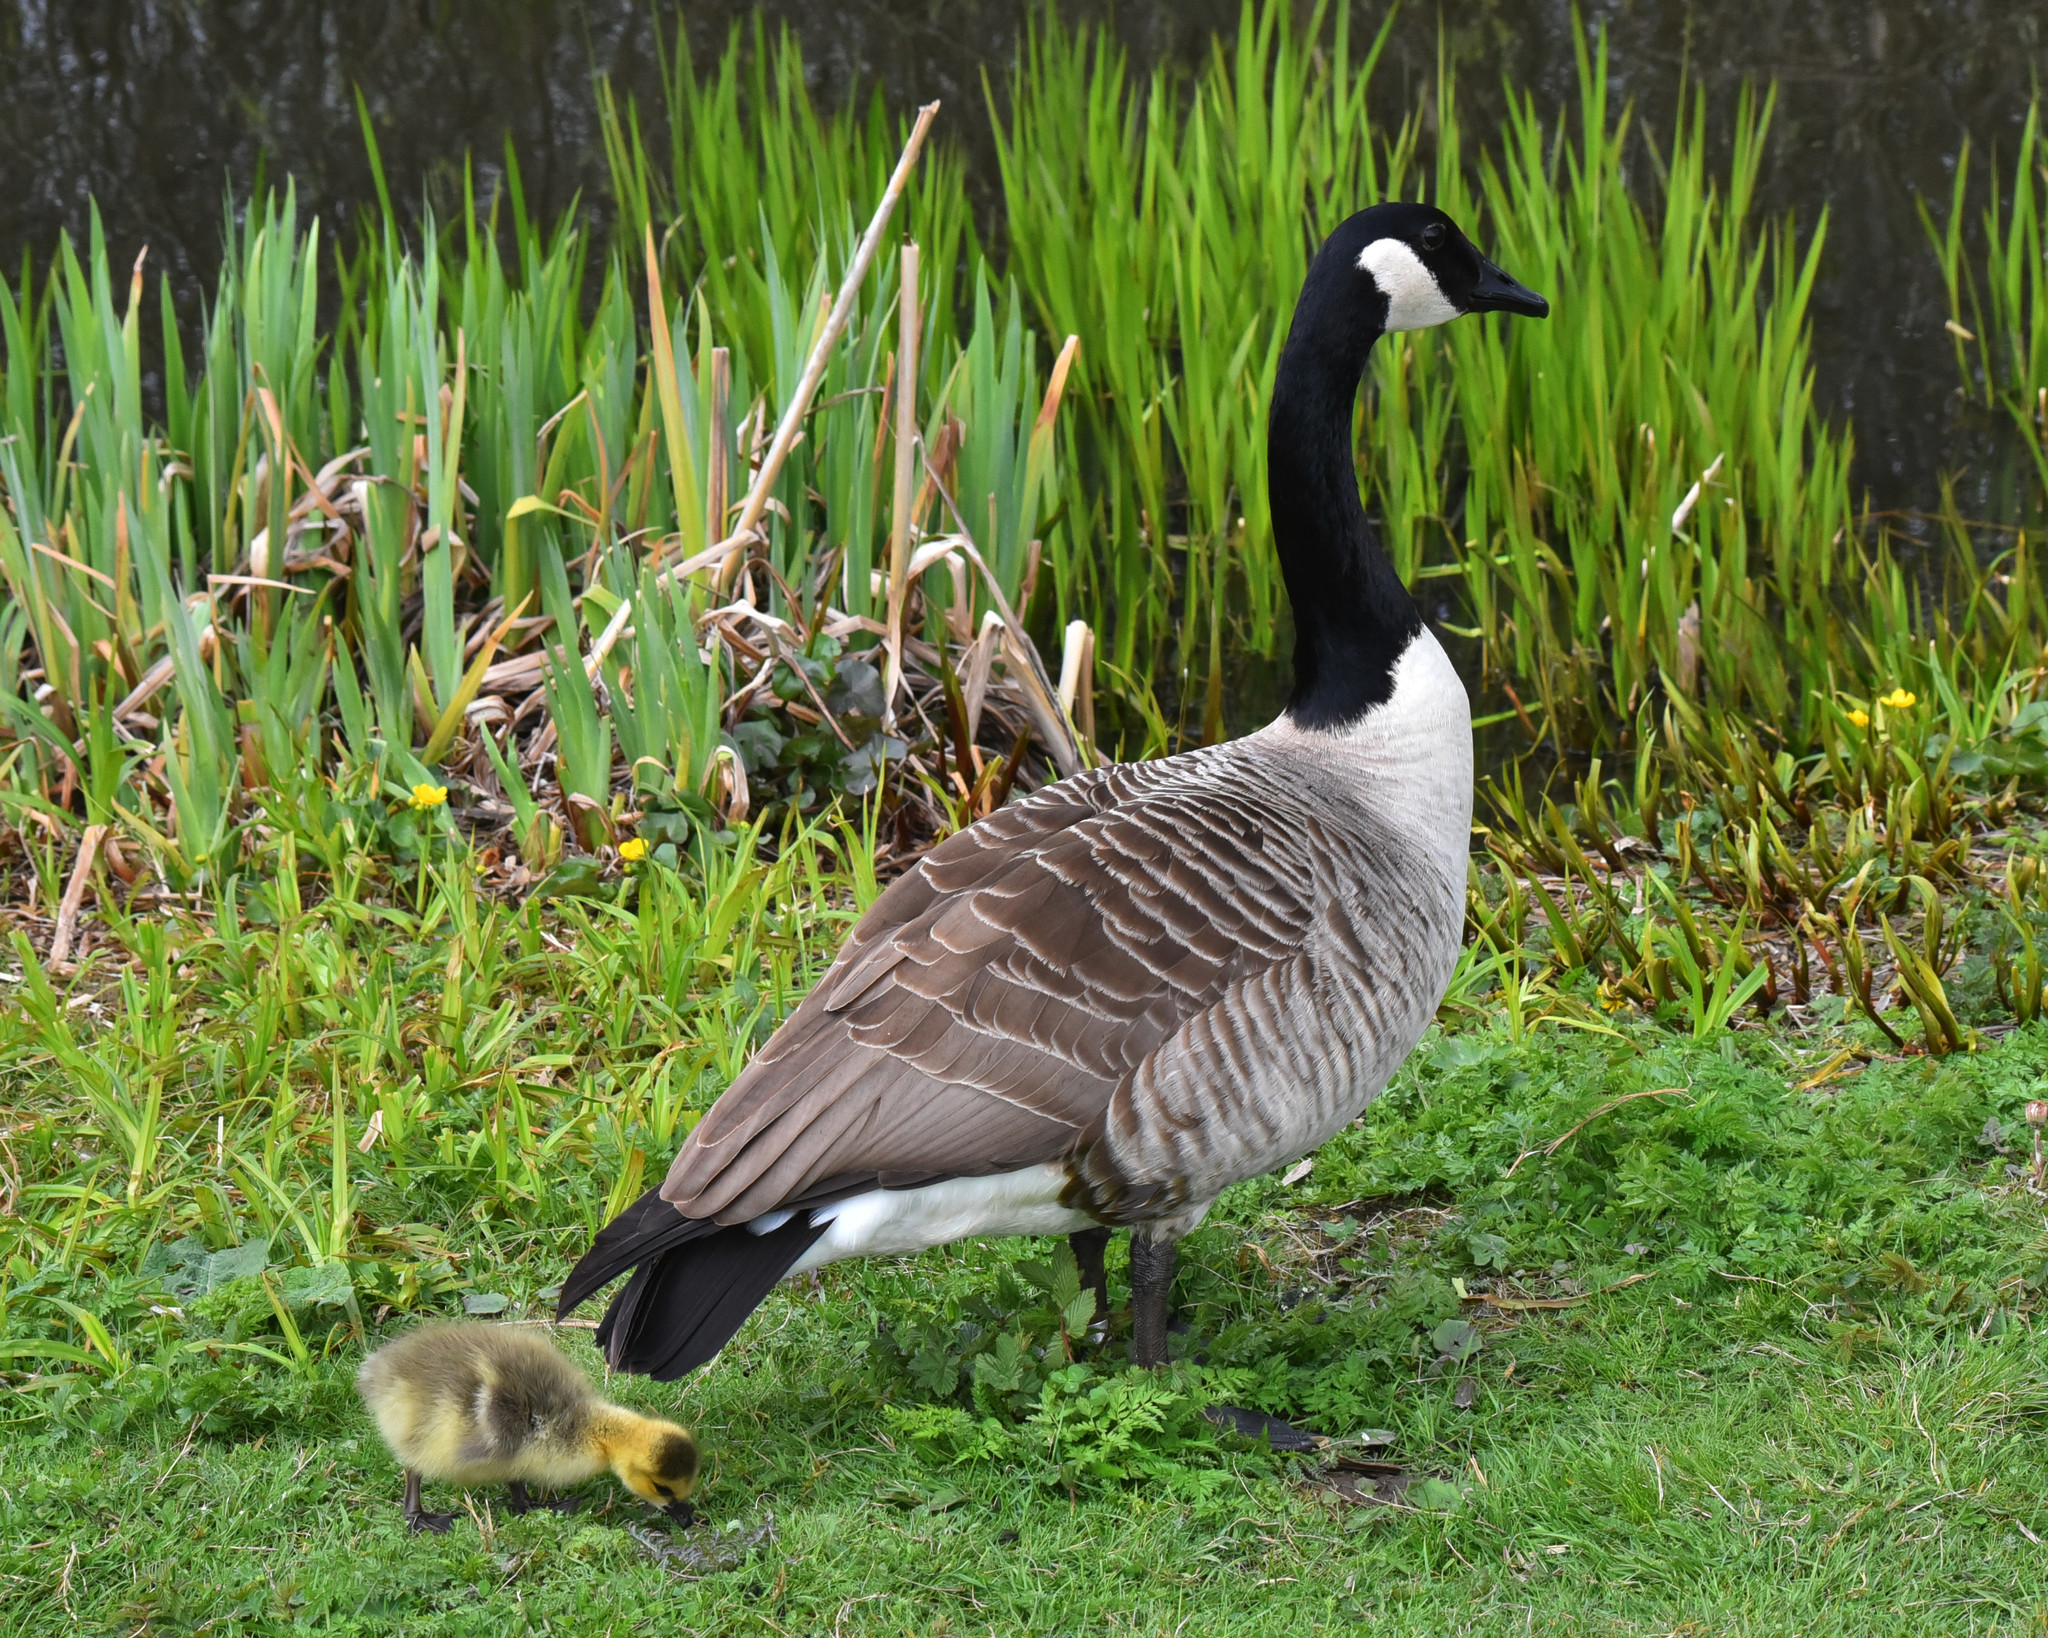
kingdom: Animalia
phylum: Chordata
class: Aves
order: Anseriformes
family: Anatidae
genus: Branta
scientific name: Branta canadensis
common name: Canada goose
